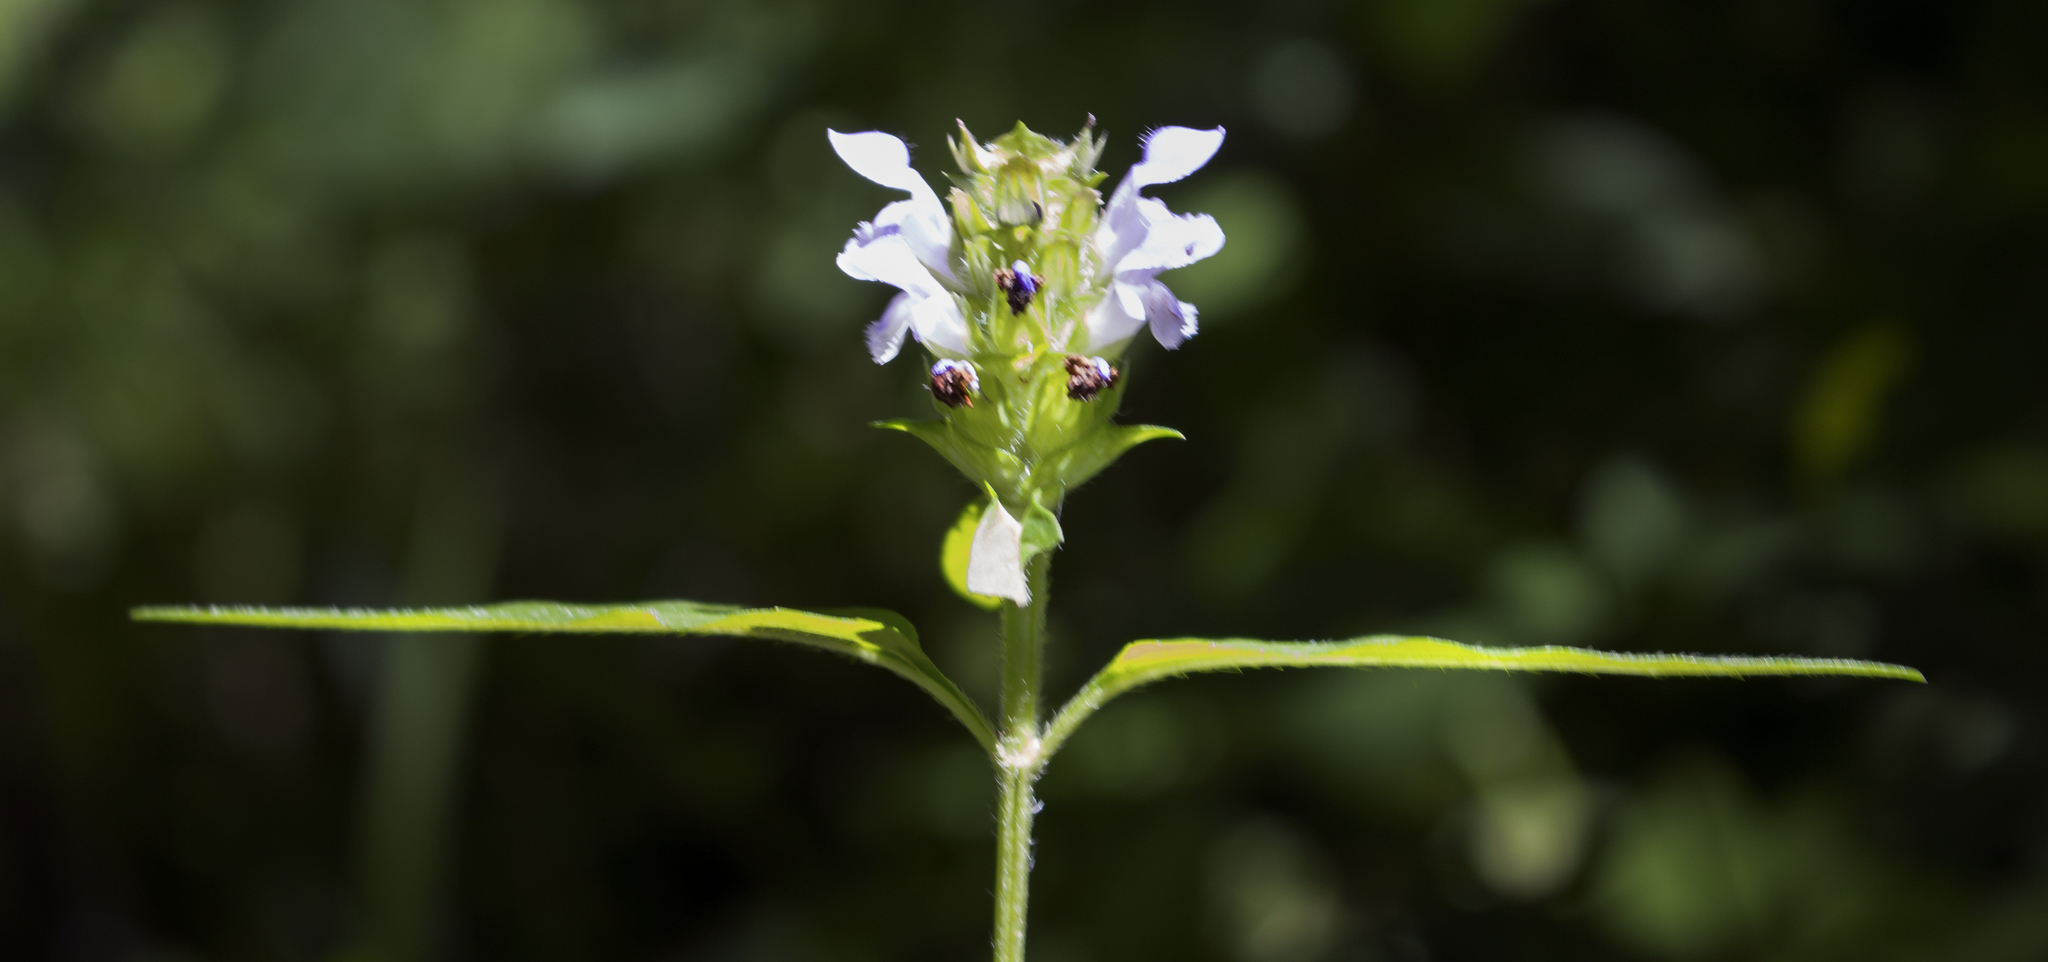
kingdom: Plantae
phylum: Tracheophyta
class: Magnoliopsida
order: Lamiales
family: Lamiaceae
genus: Prunella
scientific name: Prunella vulgaris
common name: Heal-all
